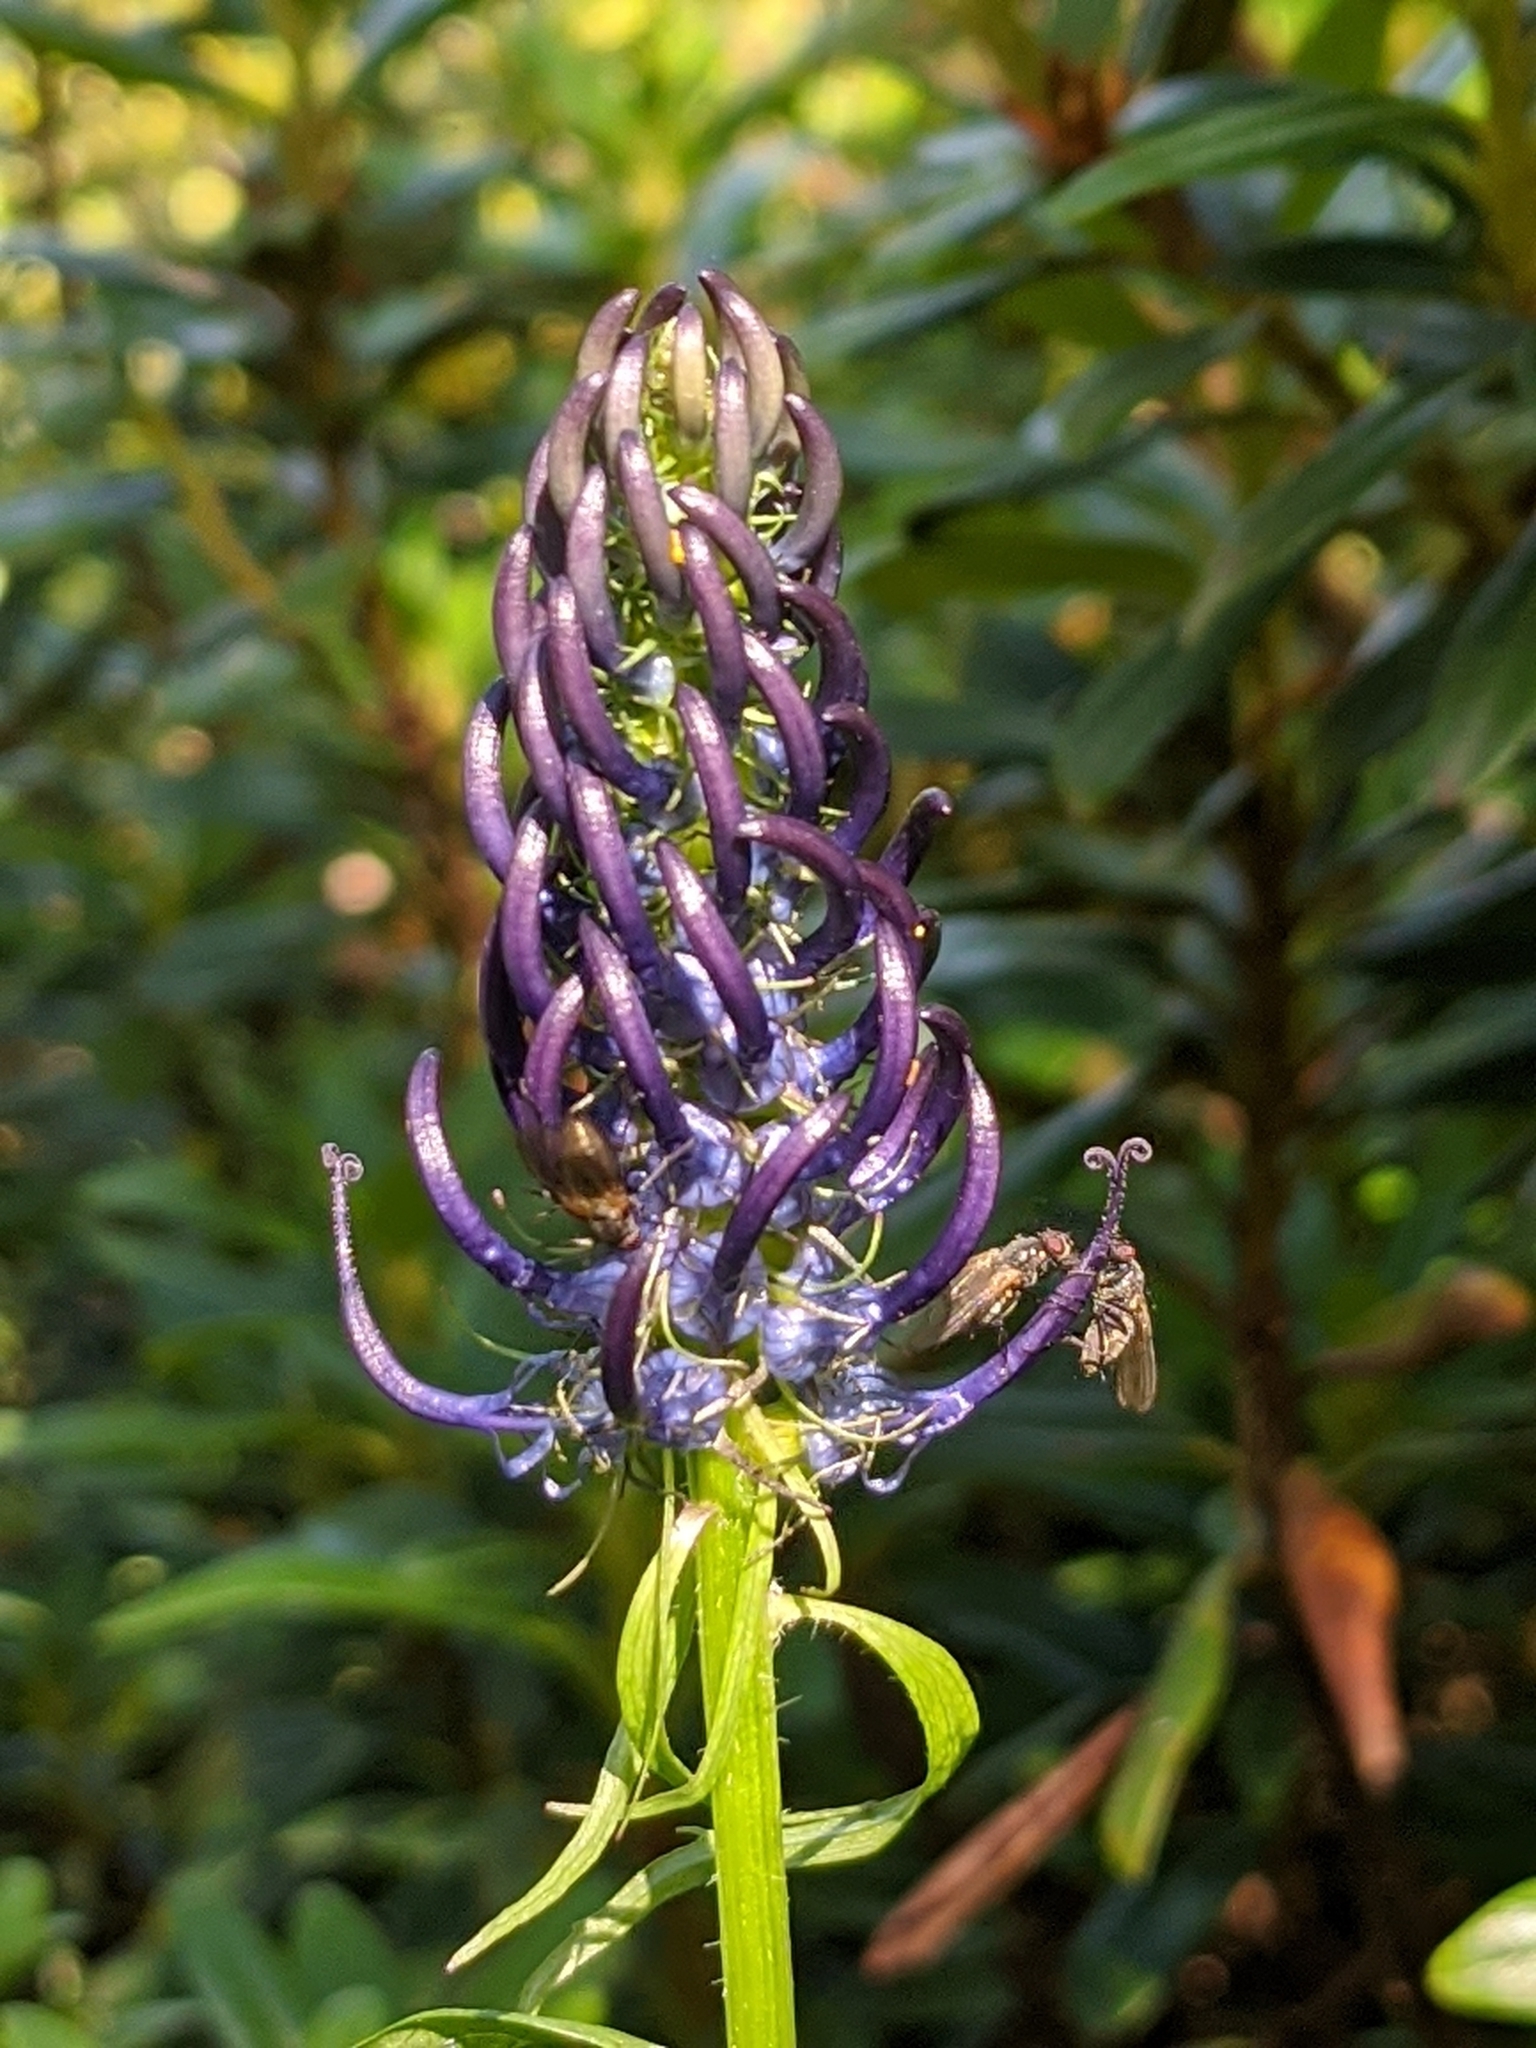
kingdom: Plantae
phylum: Tracheophyta
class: Magnoliopsida
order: Asterales
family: Campanulaceae
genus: Phyteuma
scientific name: Phyteuma ovatum
